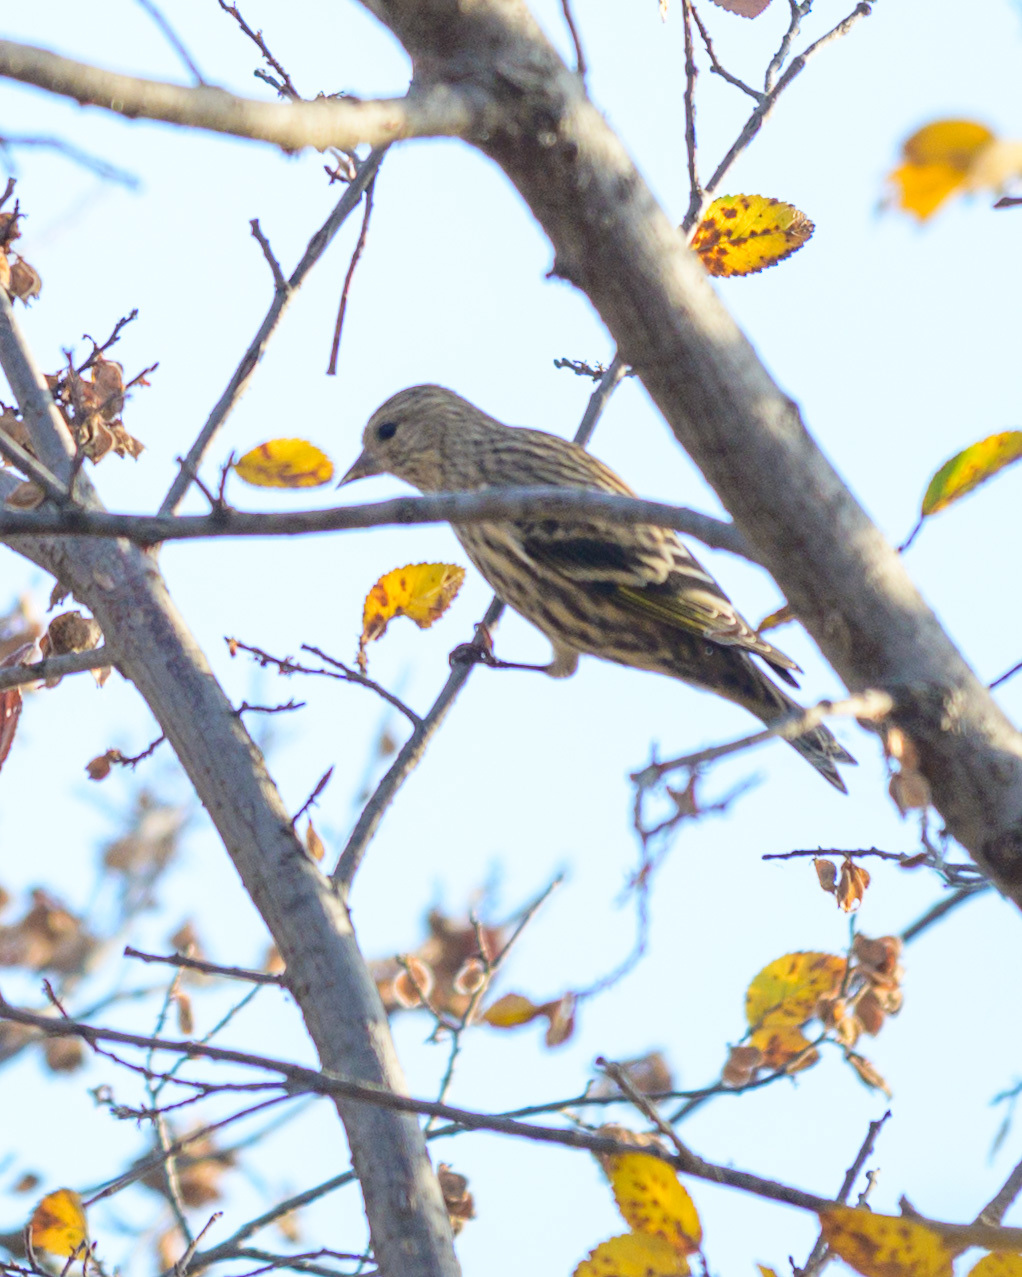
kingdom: Animalia
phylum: Chordata
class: Aves
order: Passeriformes
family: Fringillidae
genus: Spinus
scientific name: Spinus pinus
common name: Pine siskin
